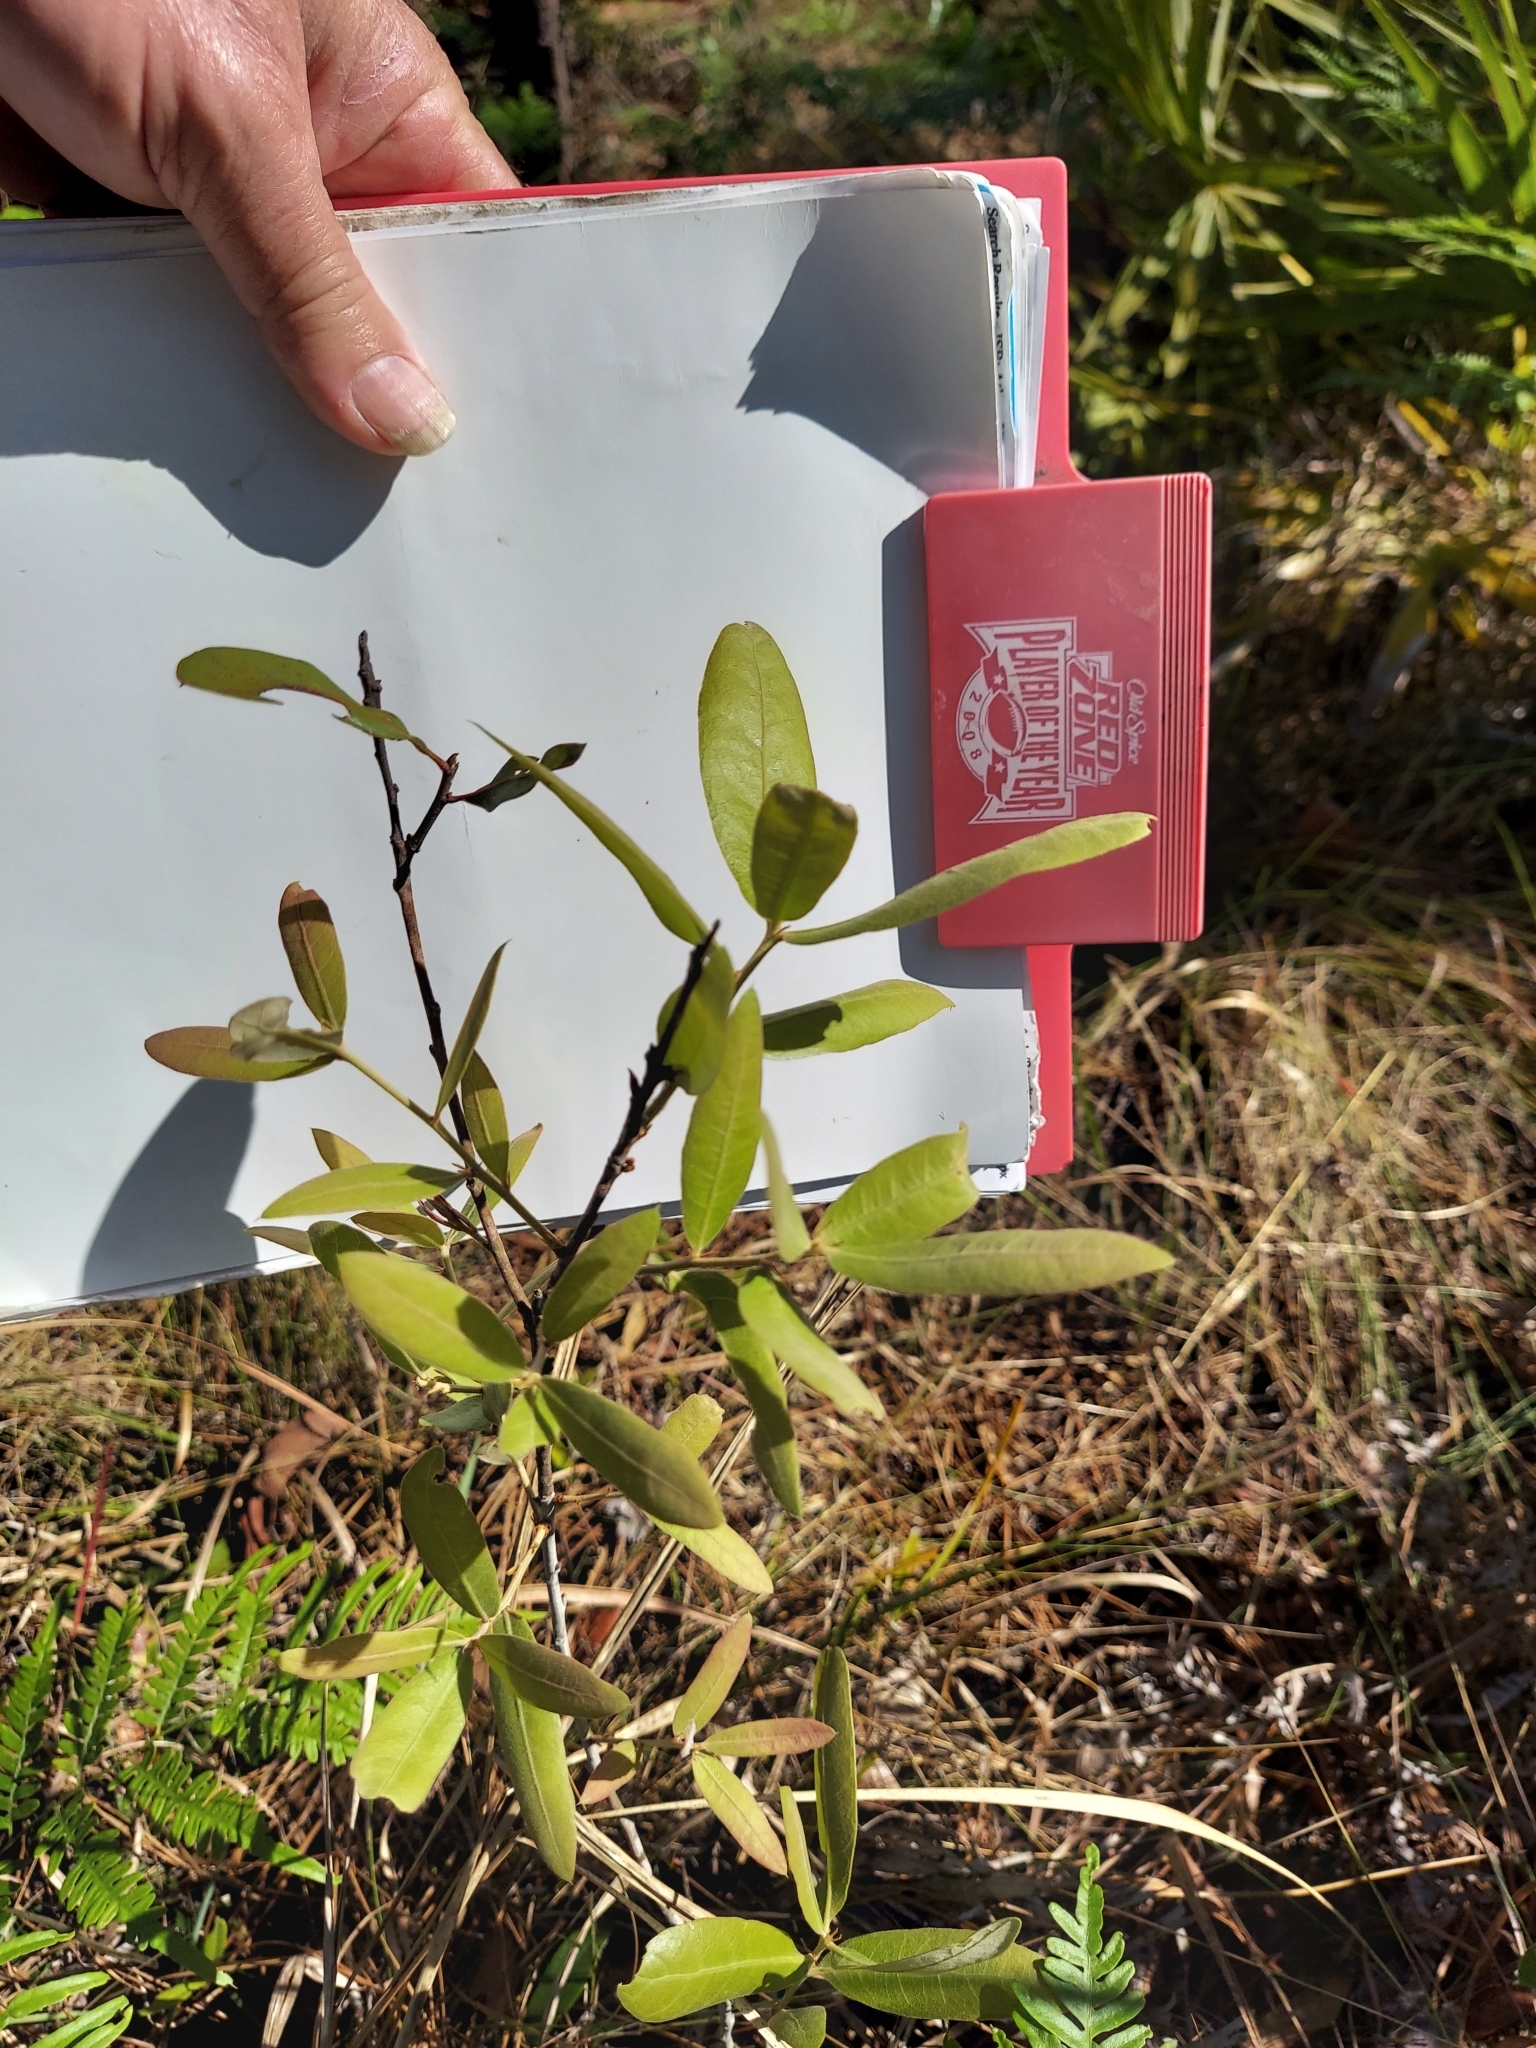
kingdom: Plantae
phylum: Tracheophyta
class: Magnoliopsida
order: Fagales
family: Fagaceae
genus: Quercus
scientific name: Quercus incana
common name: Bluejack oak
